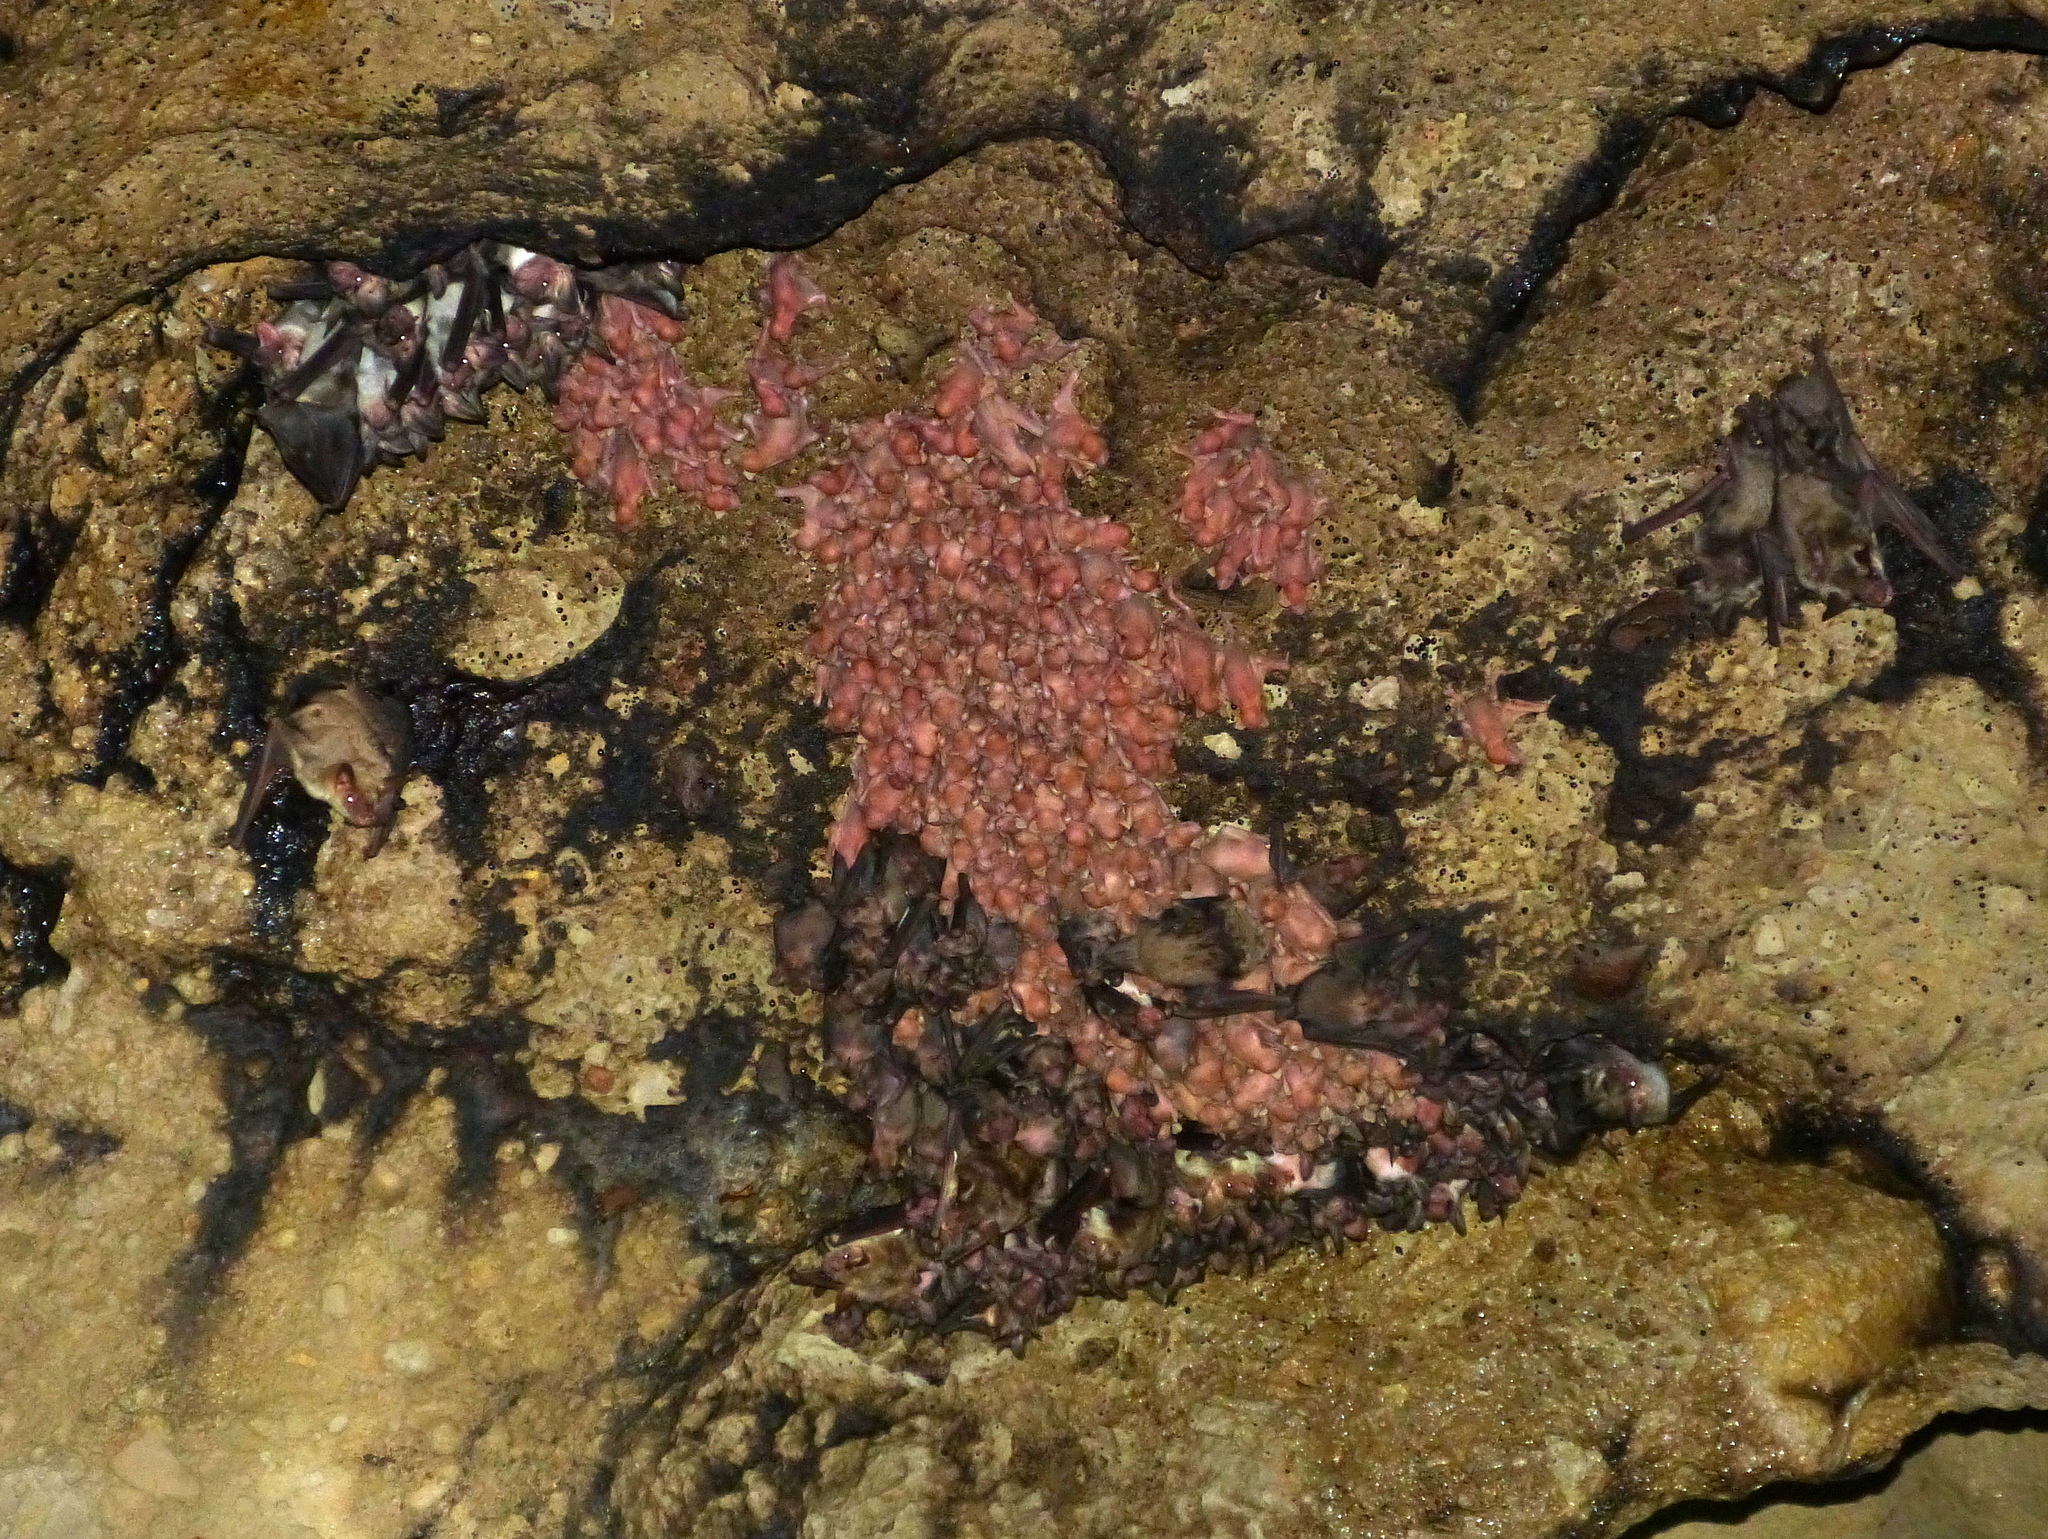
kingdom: Animalia
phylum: Chordata
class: Mammalia
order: Chiroptera
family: Miniopteridae
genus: Miniopterus
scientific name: Miniopterus schreibersii
